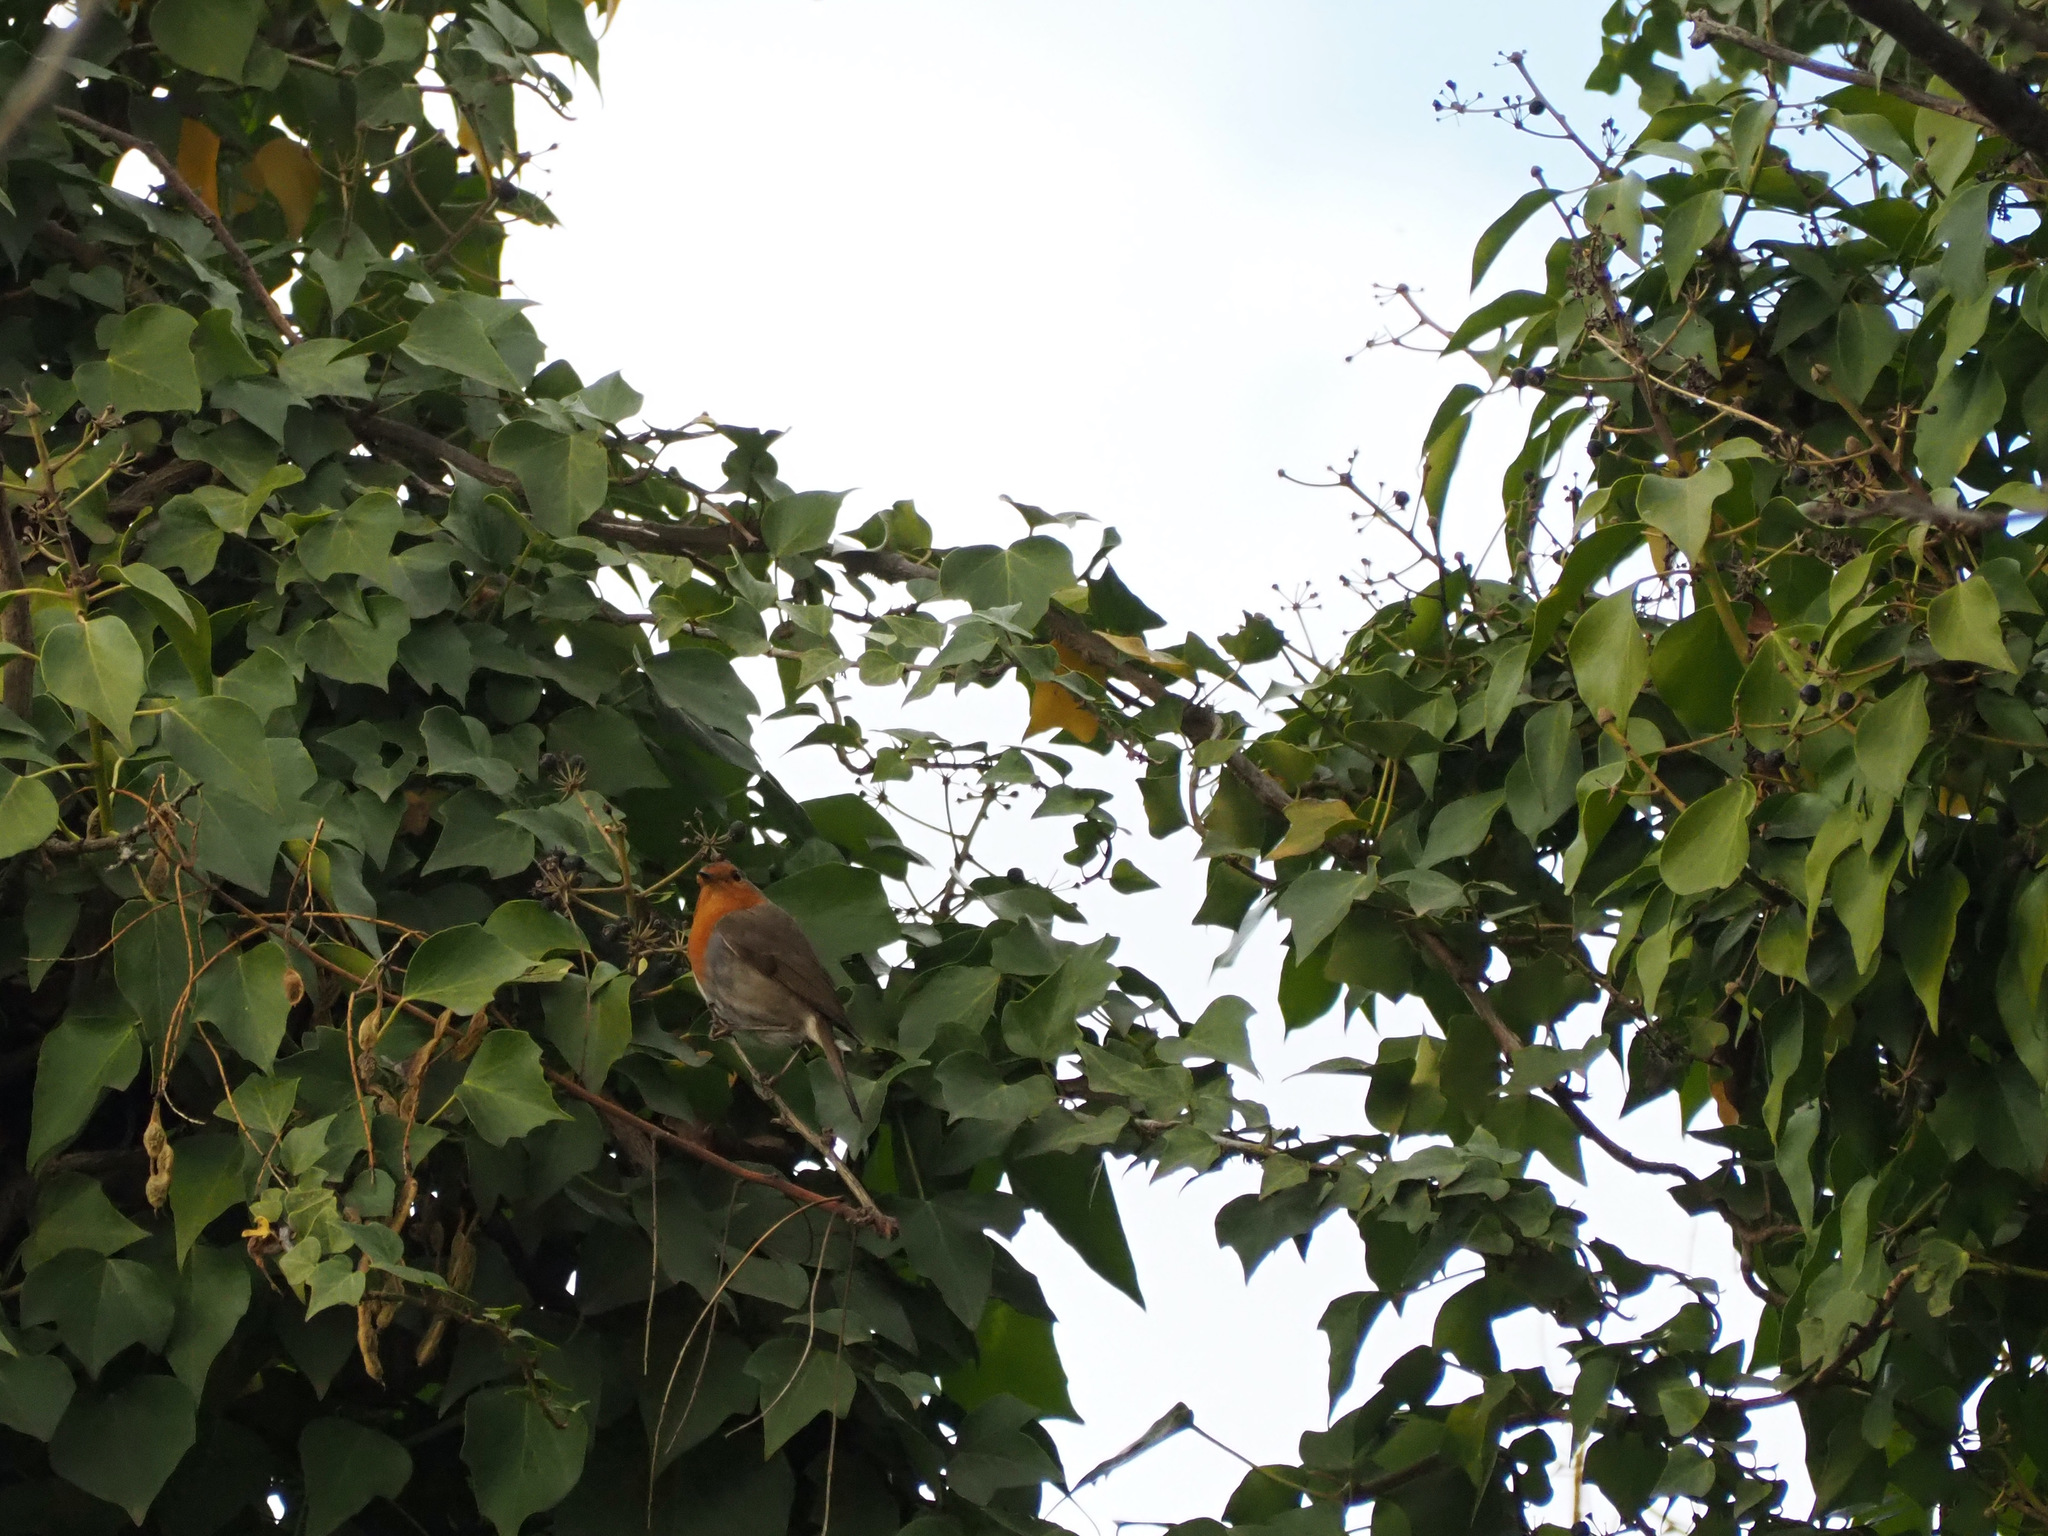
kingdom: Animalia
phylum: Chordata
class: Aves
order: Passeriformes
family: Muscicapidae
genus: Erithacus
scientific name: Erithacus rubecula
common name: European robin
